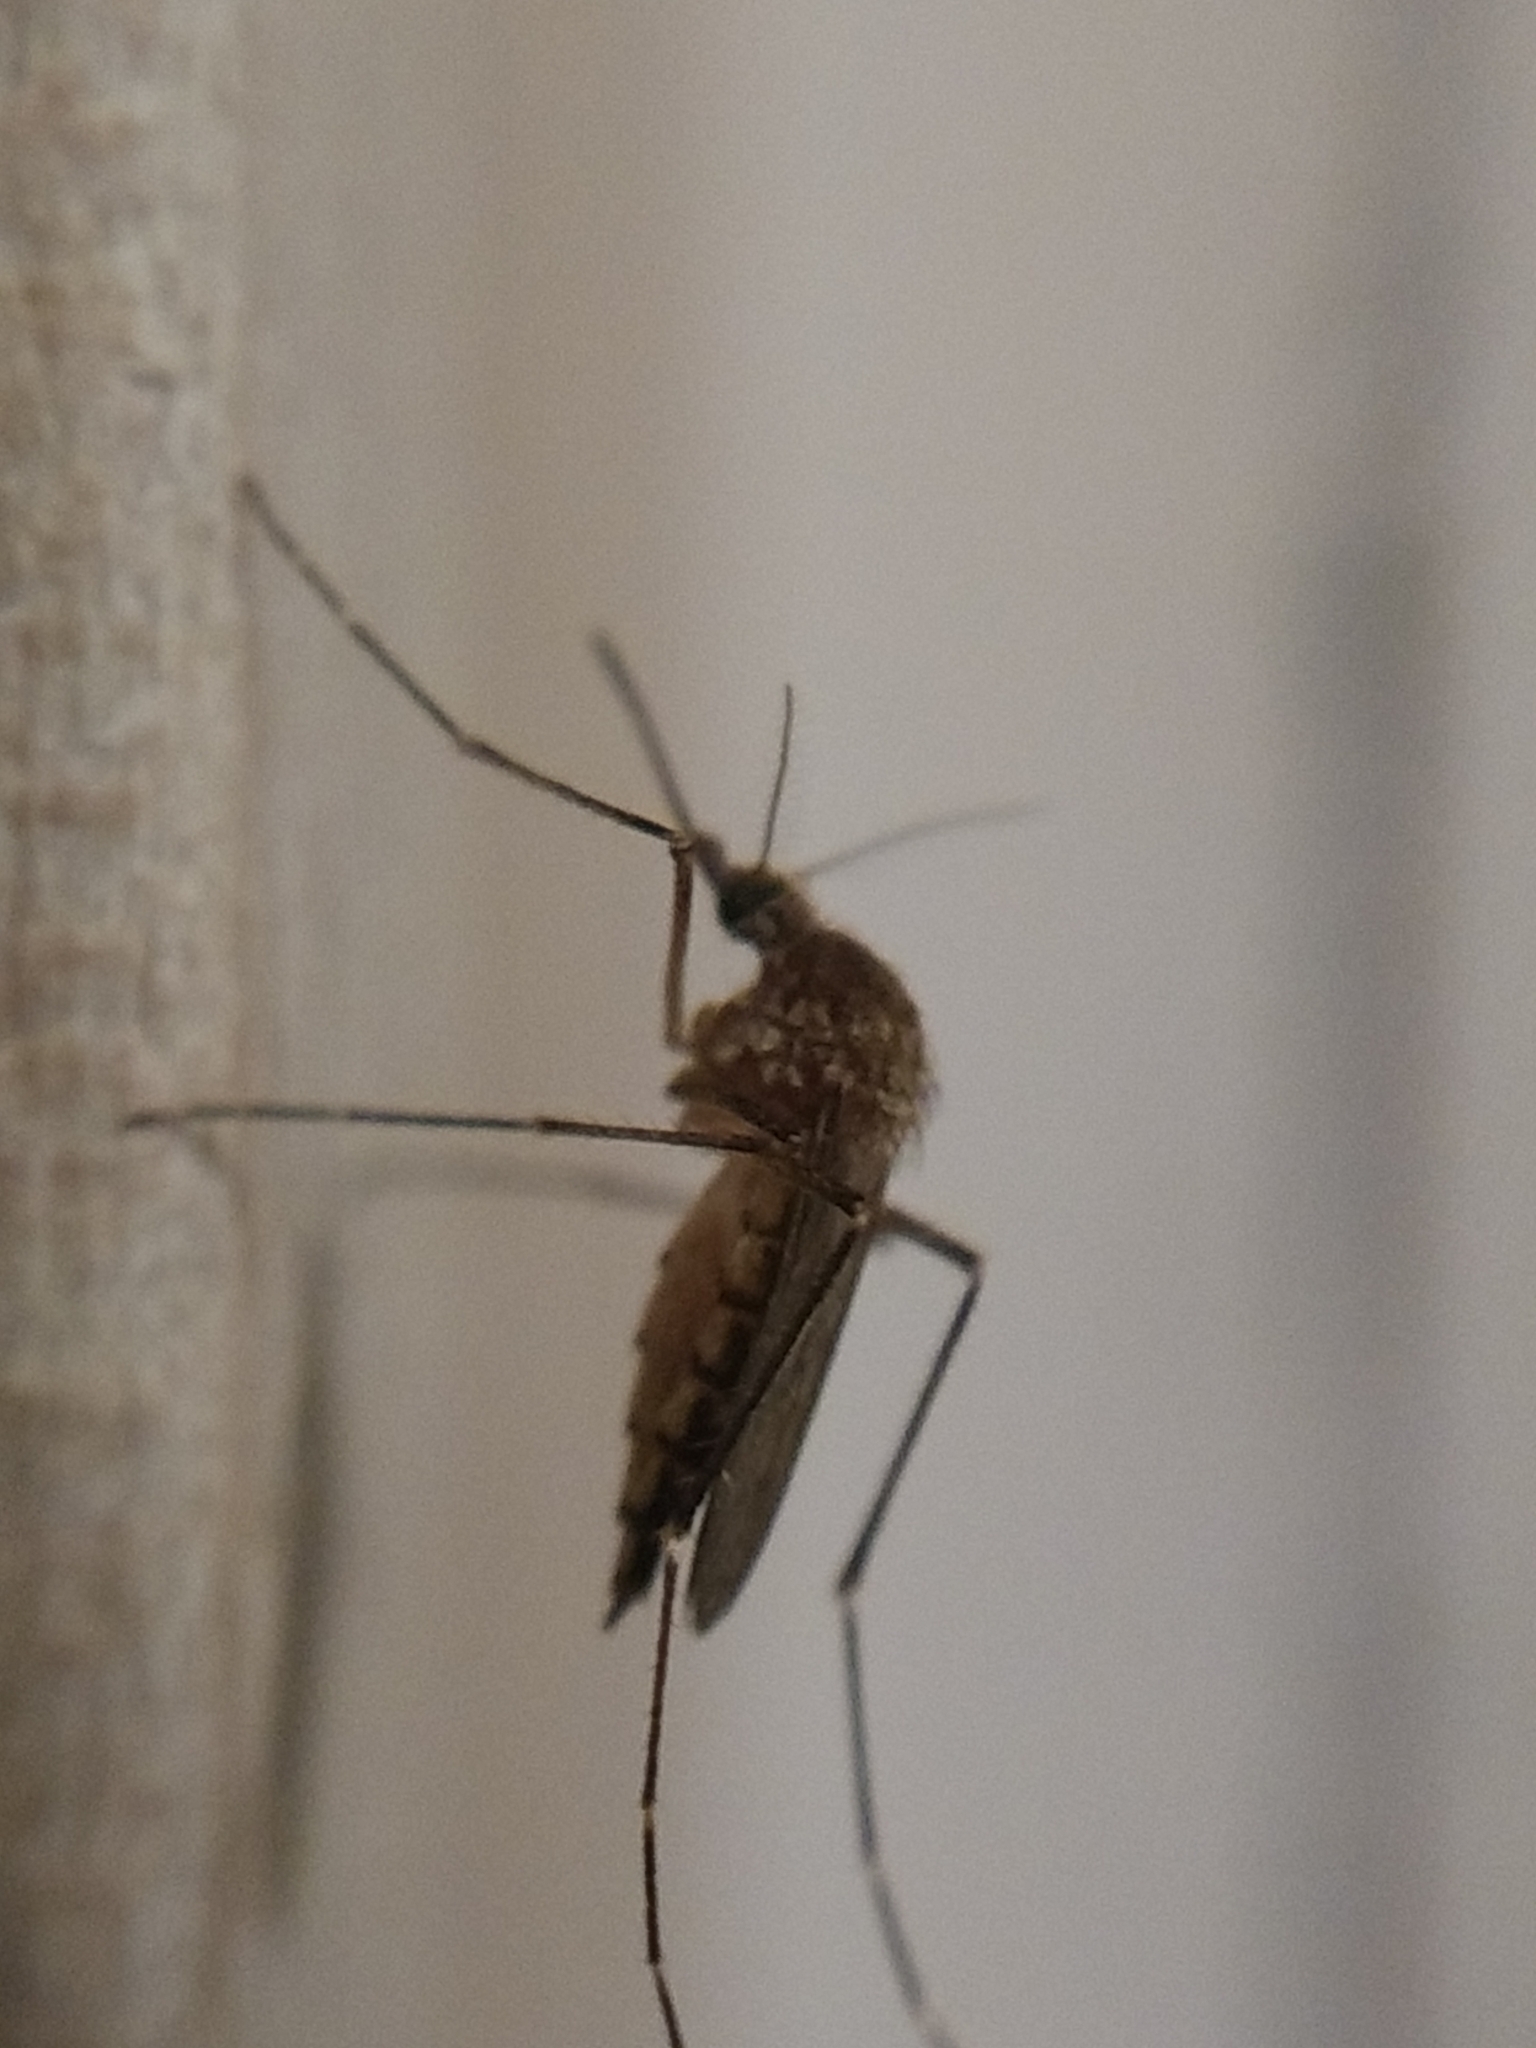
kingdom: Animalia
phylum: Arthropoda
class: Insecta
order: Diptera
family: Culicidae
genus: Aedes
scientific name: Aedes vexans
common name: Inland floodwater mosquito
